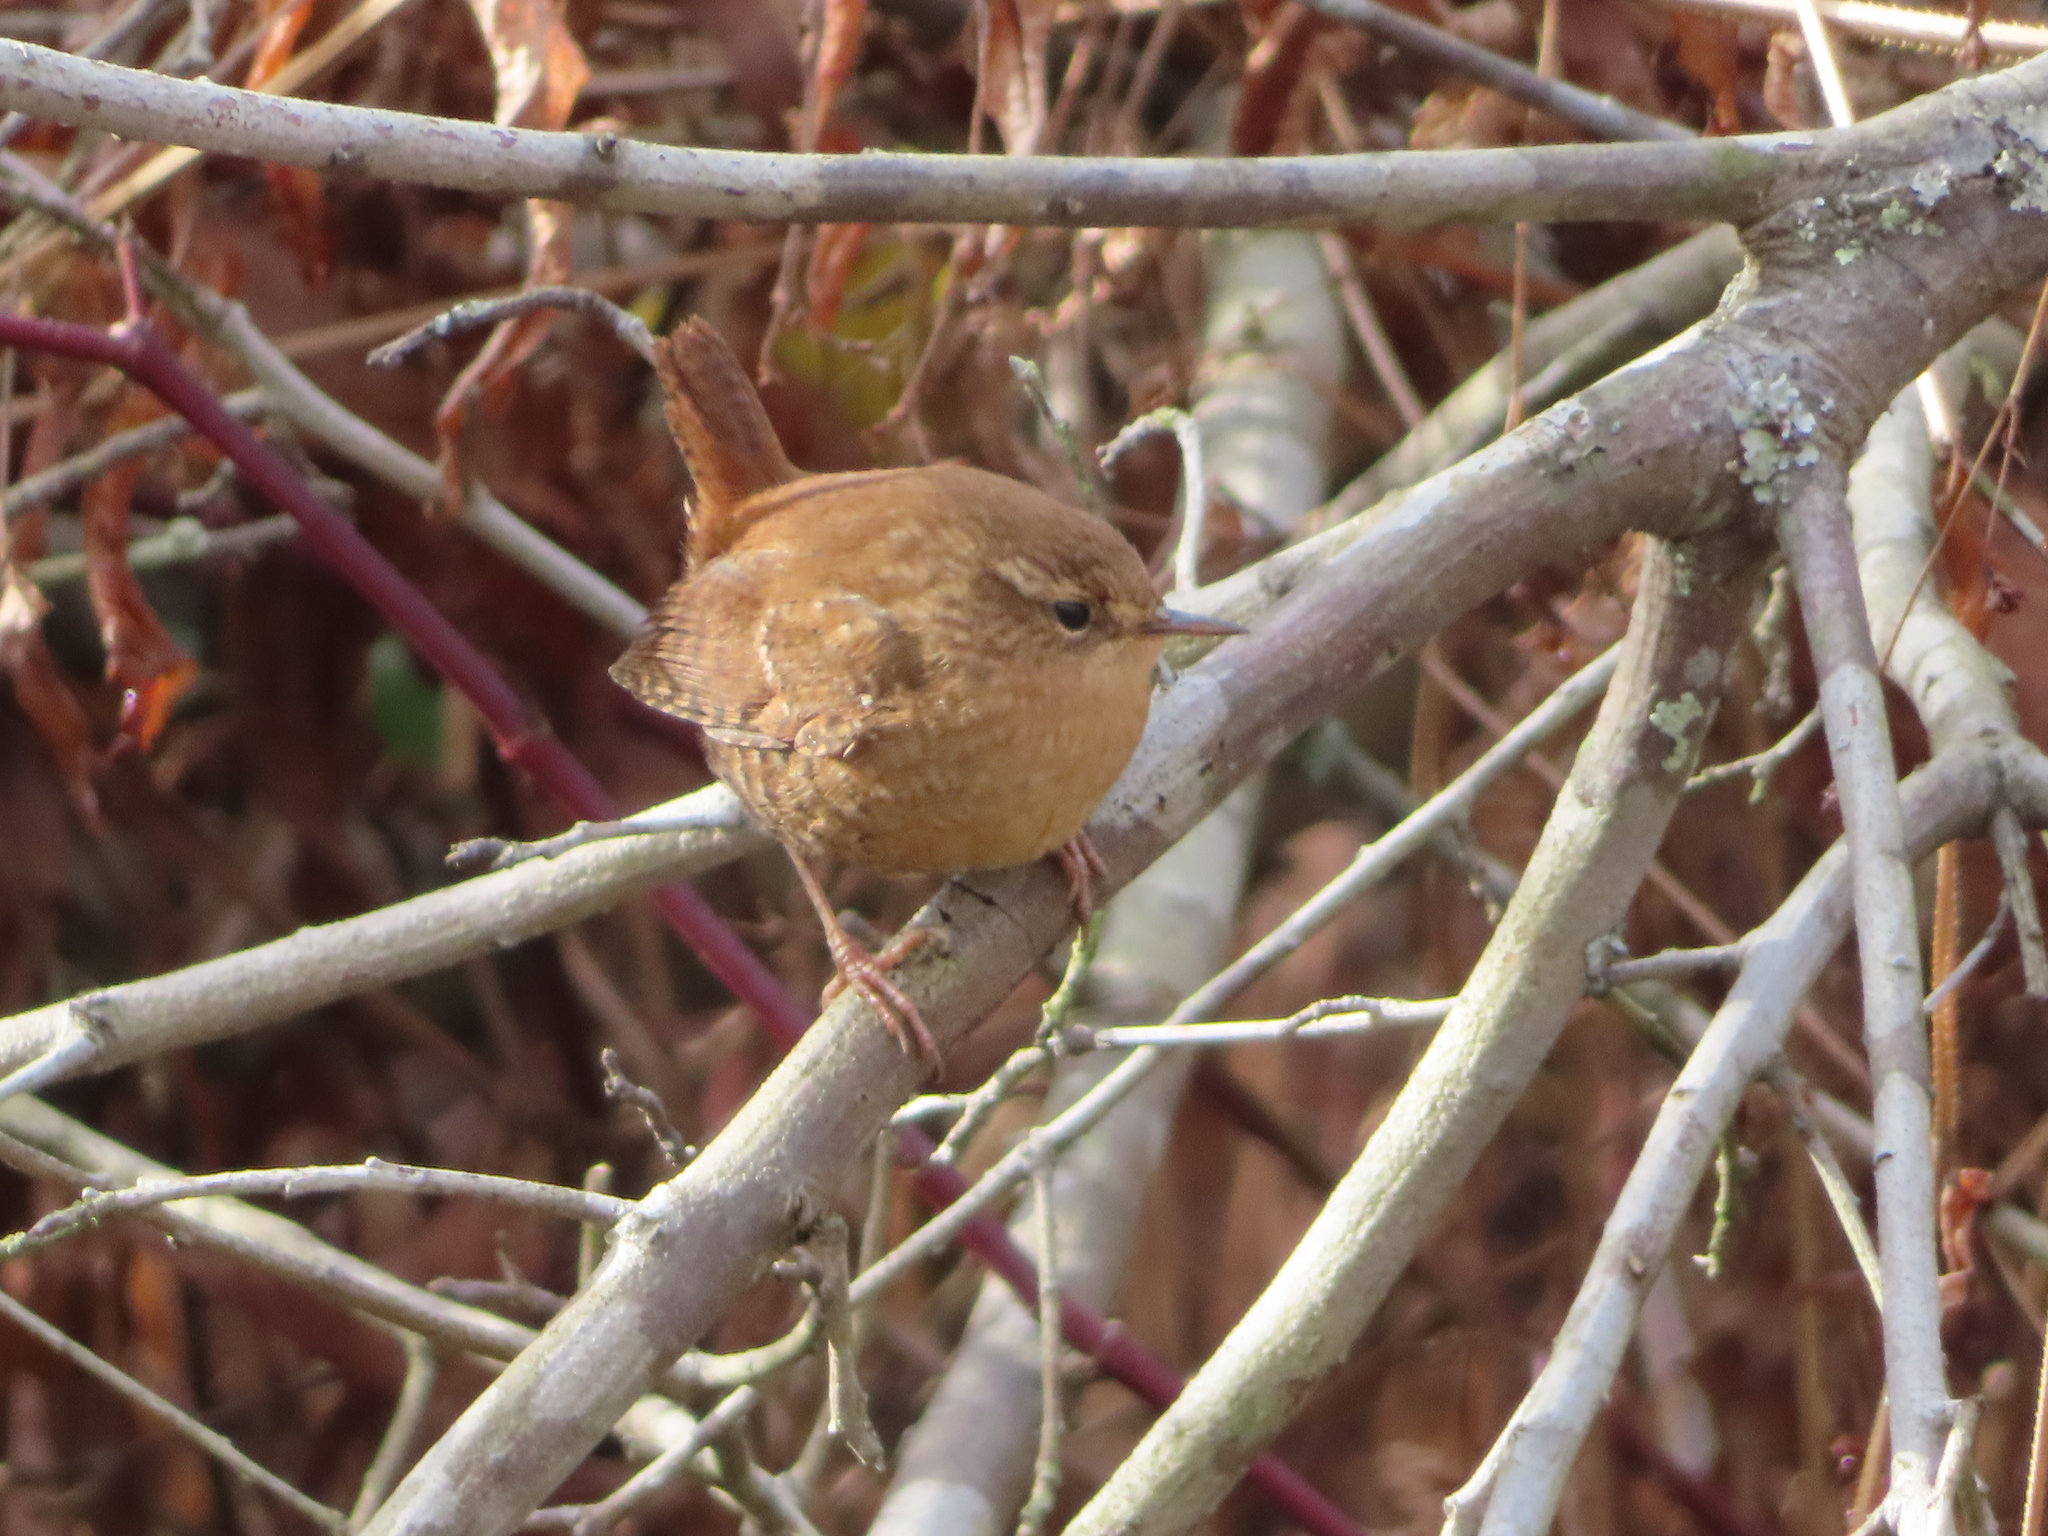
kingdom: Animalia
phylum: Chordata
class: Aves
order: Passeriformes
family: Troglodytidae
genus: Troglodytes
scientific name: Troglodytes hiemalis
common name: Winter wren
